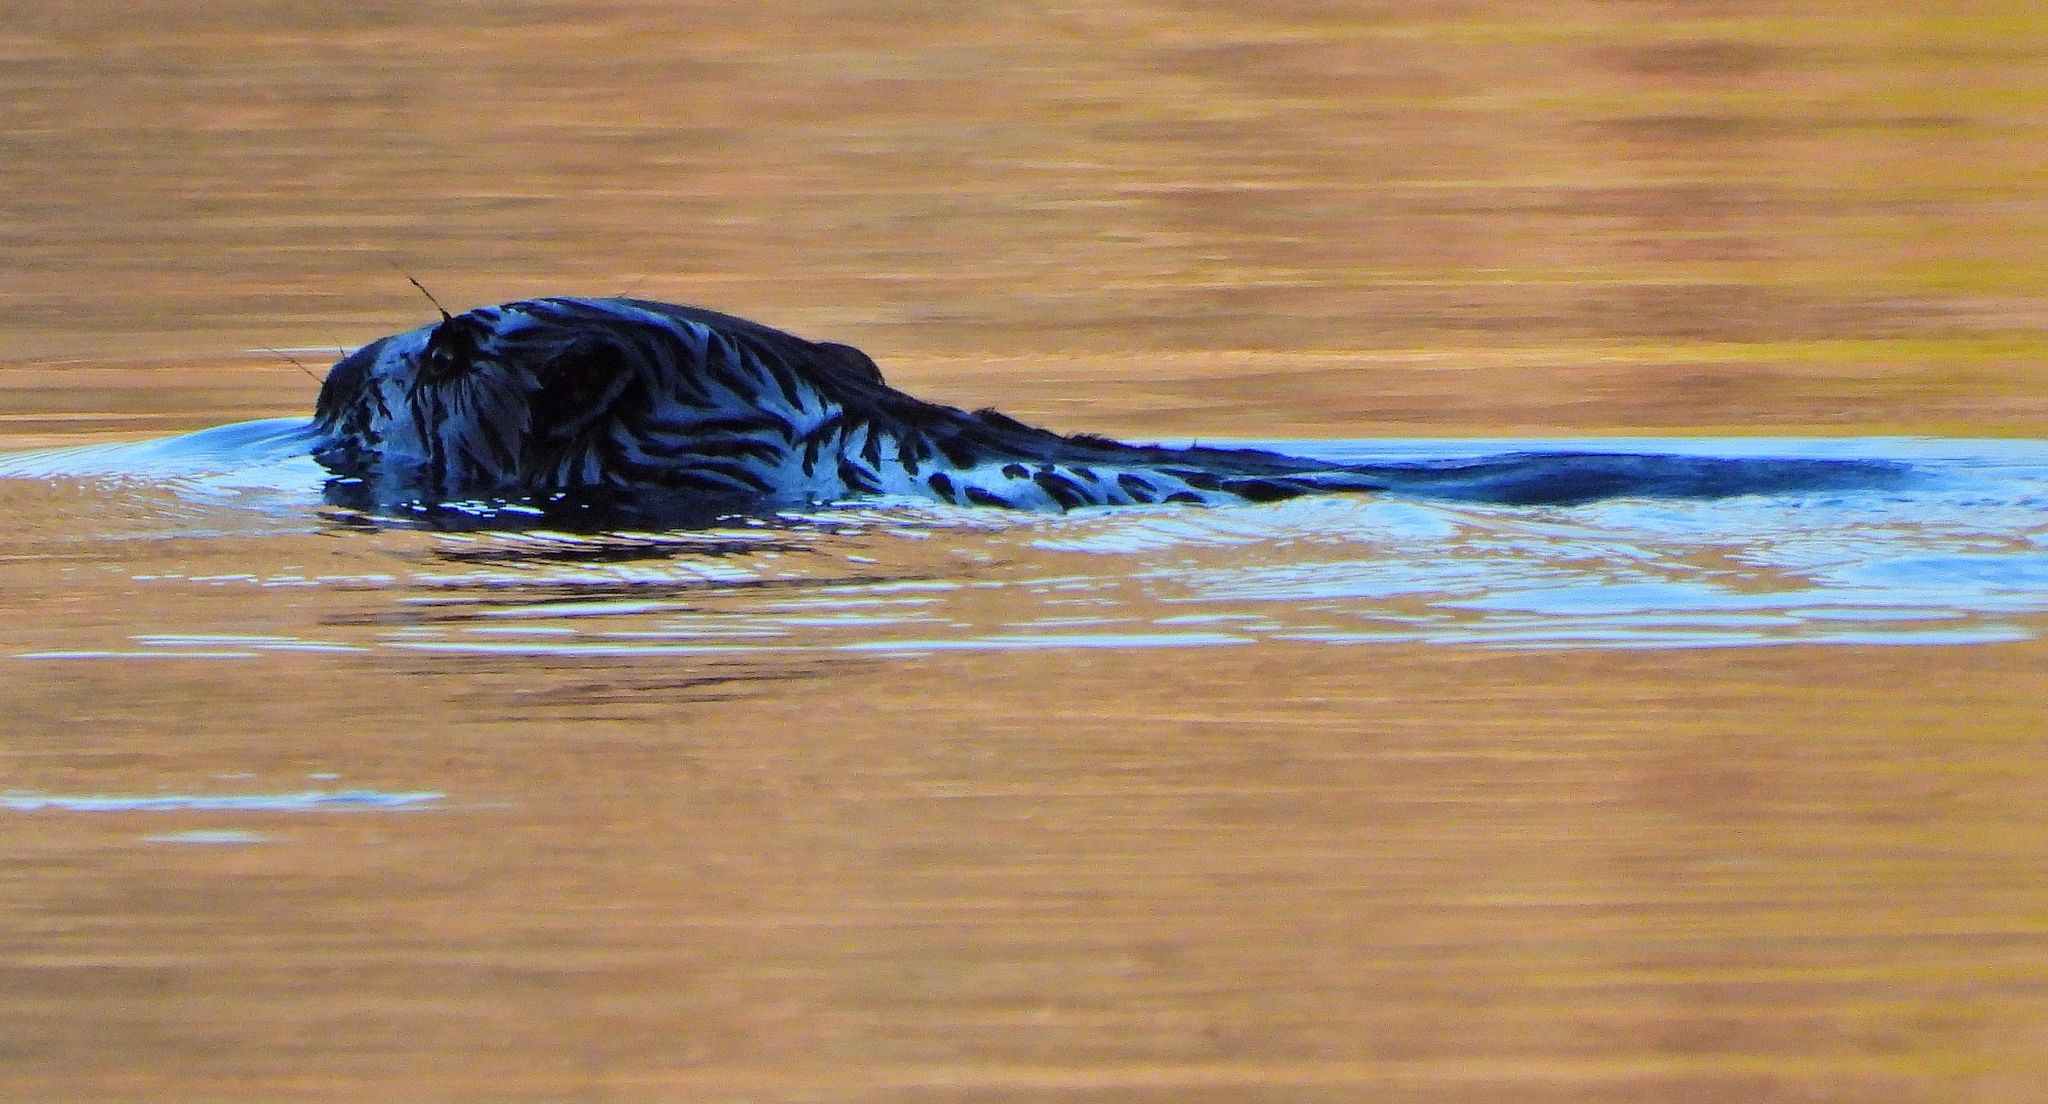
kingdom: Animalia
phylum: Chordata
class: Mammalia
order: Rodentia
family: Castoridae
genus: Castor
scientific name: Castor canadensis
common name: American beaver
